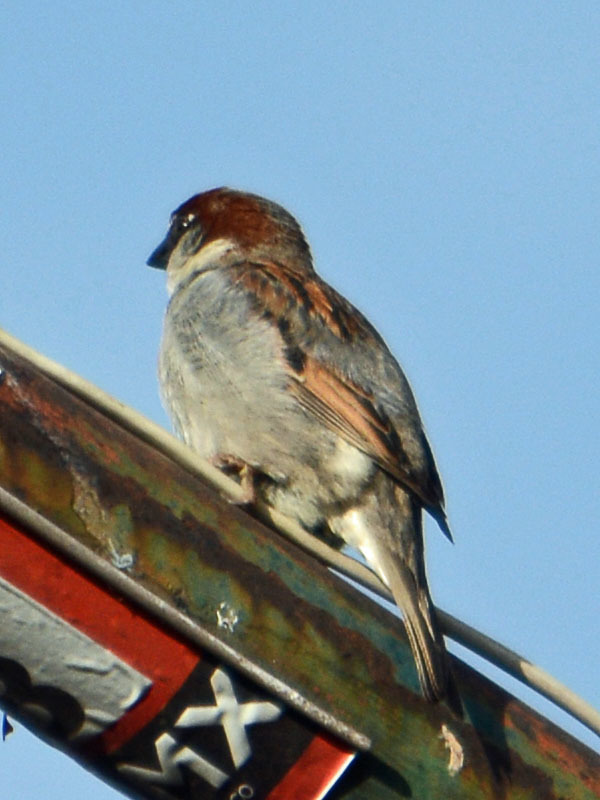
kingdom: Animalia
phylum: Chordata
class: Aves
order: Passeriformes
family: Passeridae
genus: Passer
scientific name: Passer domesticus
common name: House sparrow
